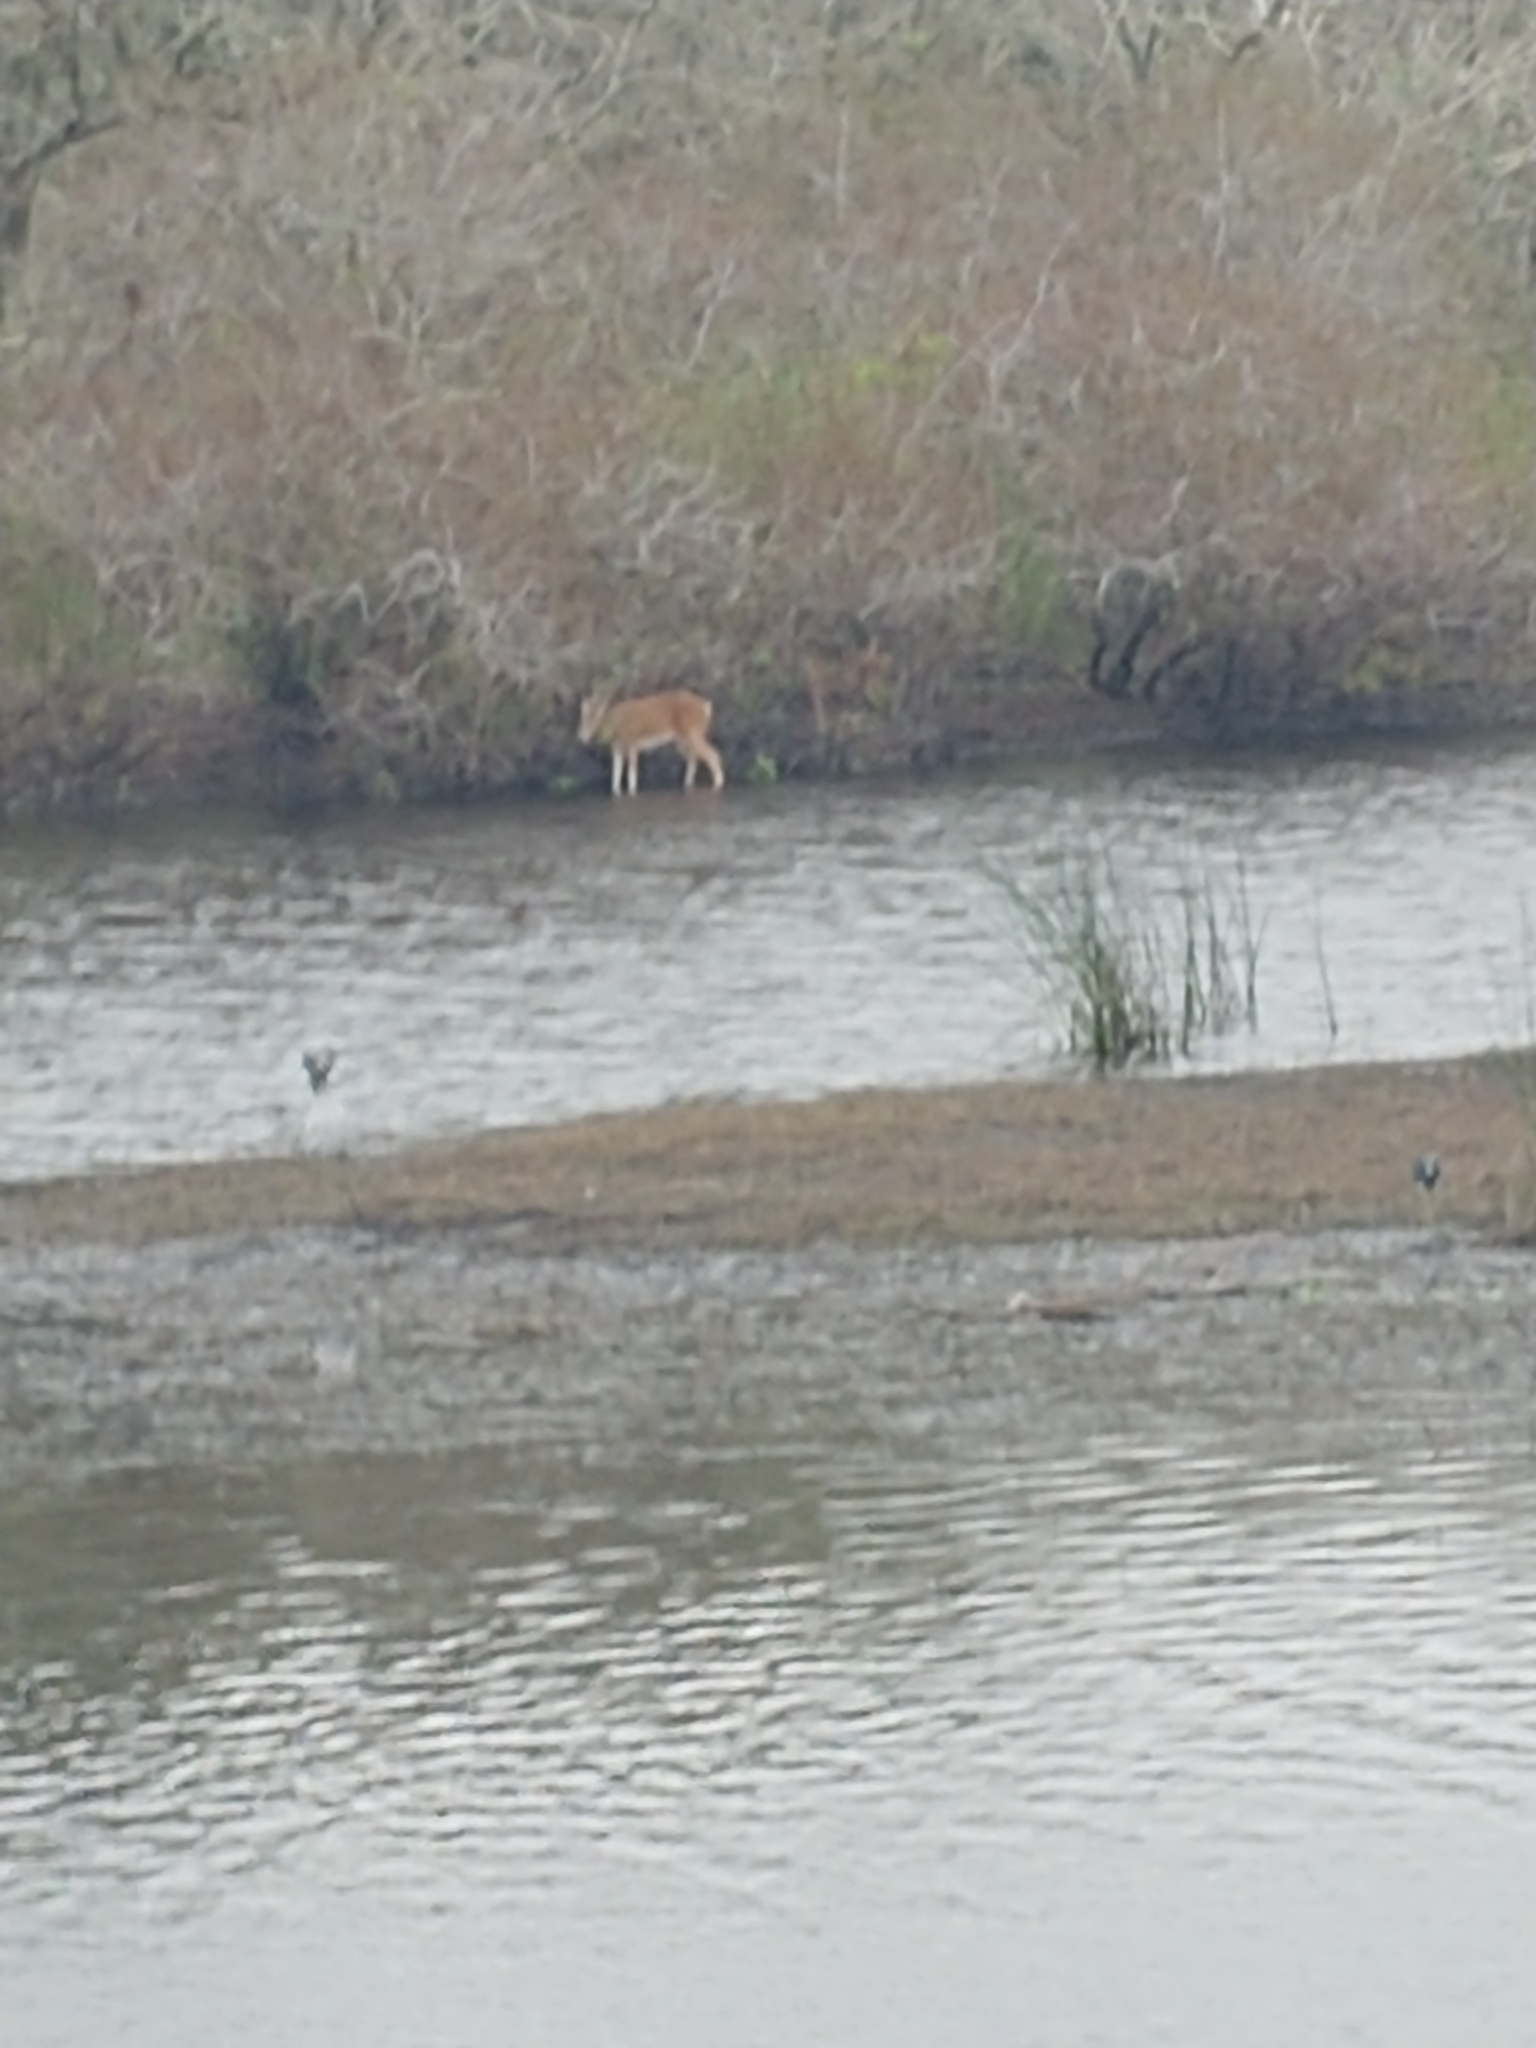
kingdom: Animalia
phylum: Chordata
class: Mammalia
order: Artiodactyla
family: Cervidae
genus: Odocoileus
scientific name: Odocoileus virginianus
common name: White-tailed deer
